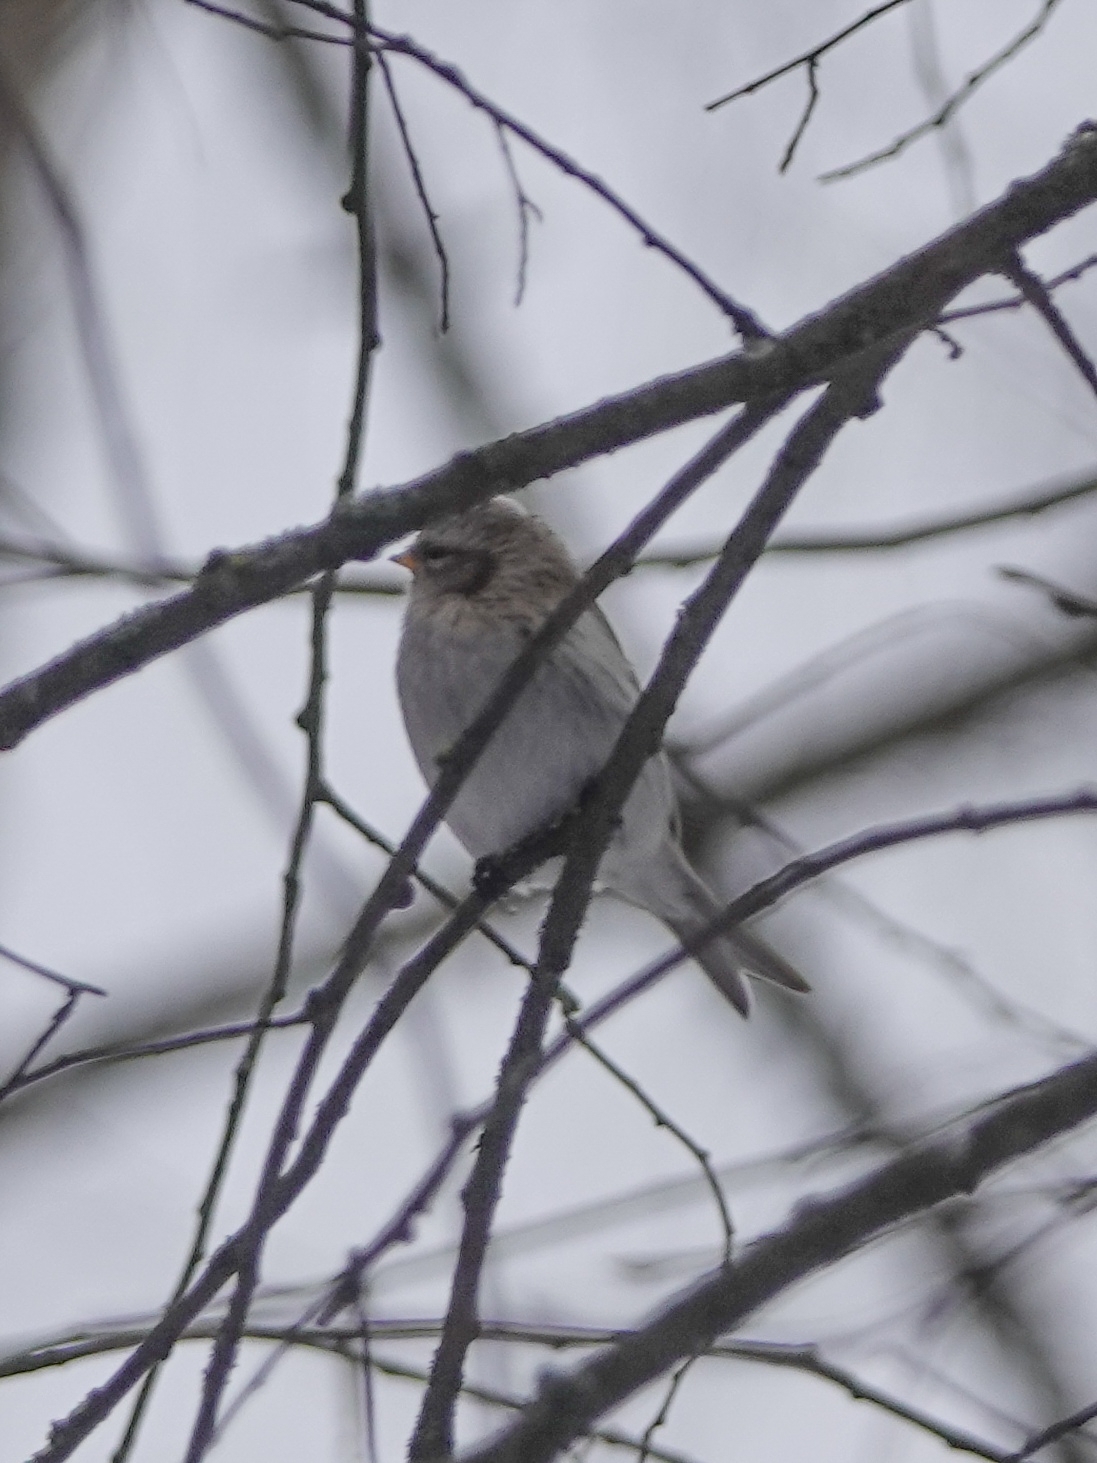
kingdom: Animalia
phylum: Chordata
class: Aves
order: Passeriformes
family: Fringillidae
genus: Acanthis
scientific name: Acanthis hornemanni
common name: Arctic redpoll
